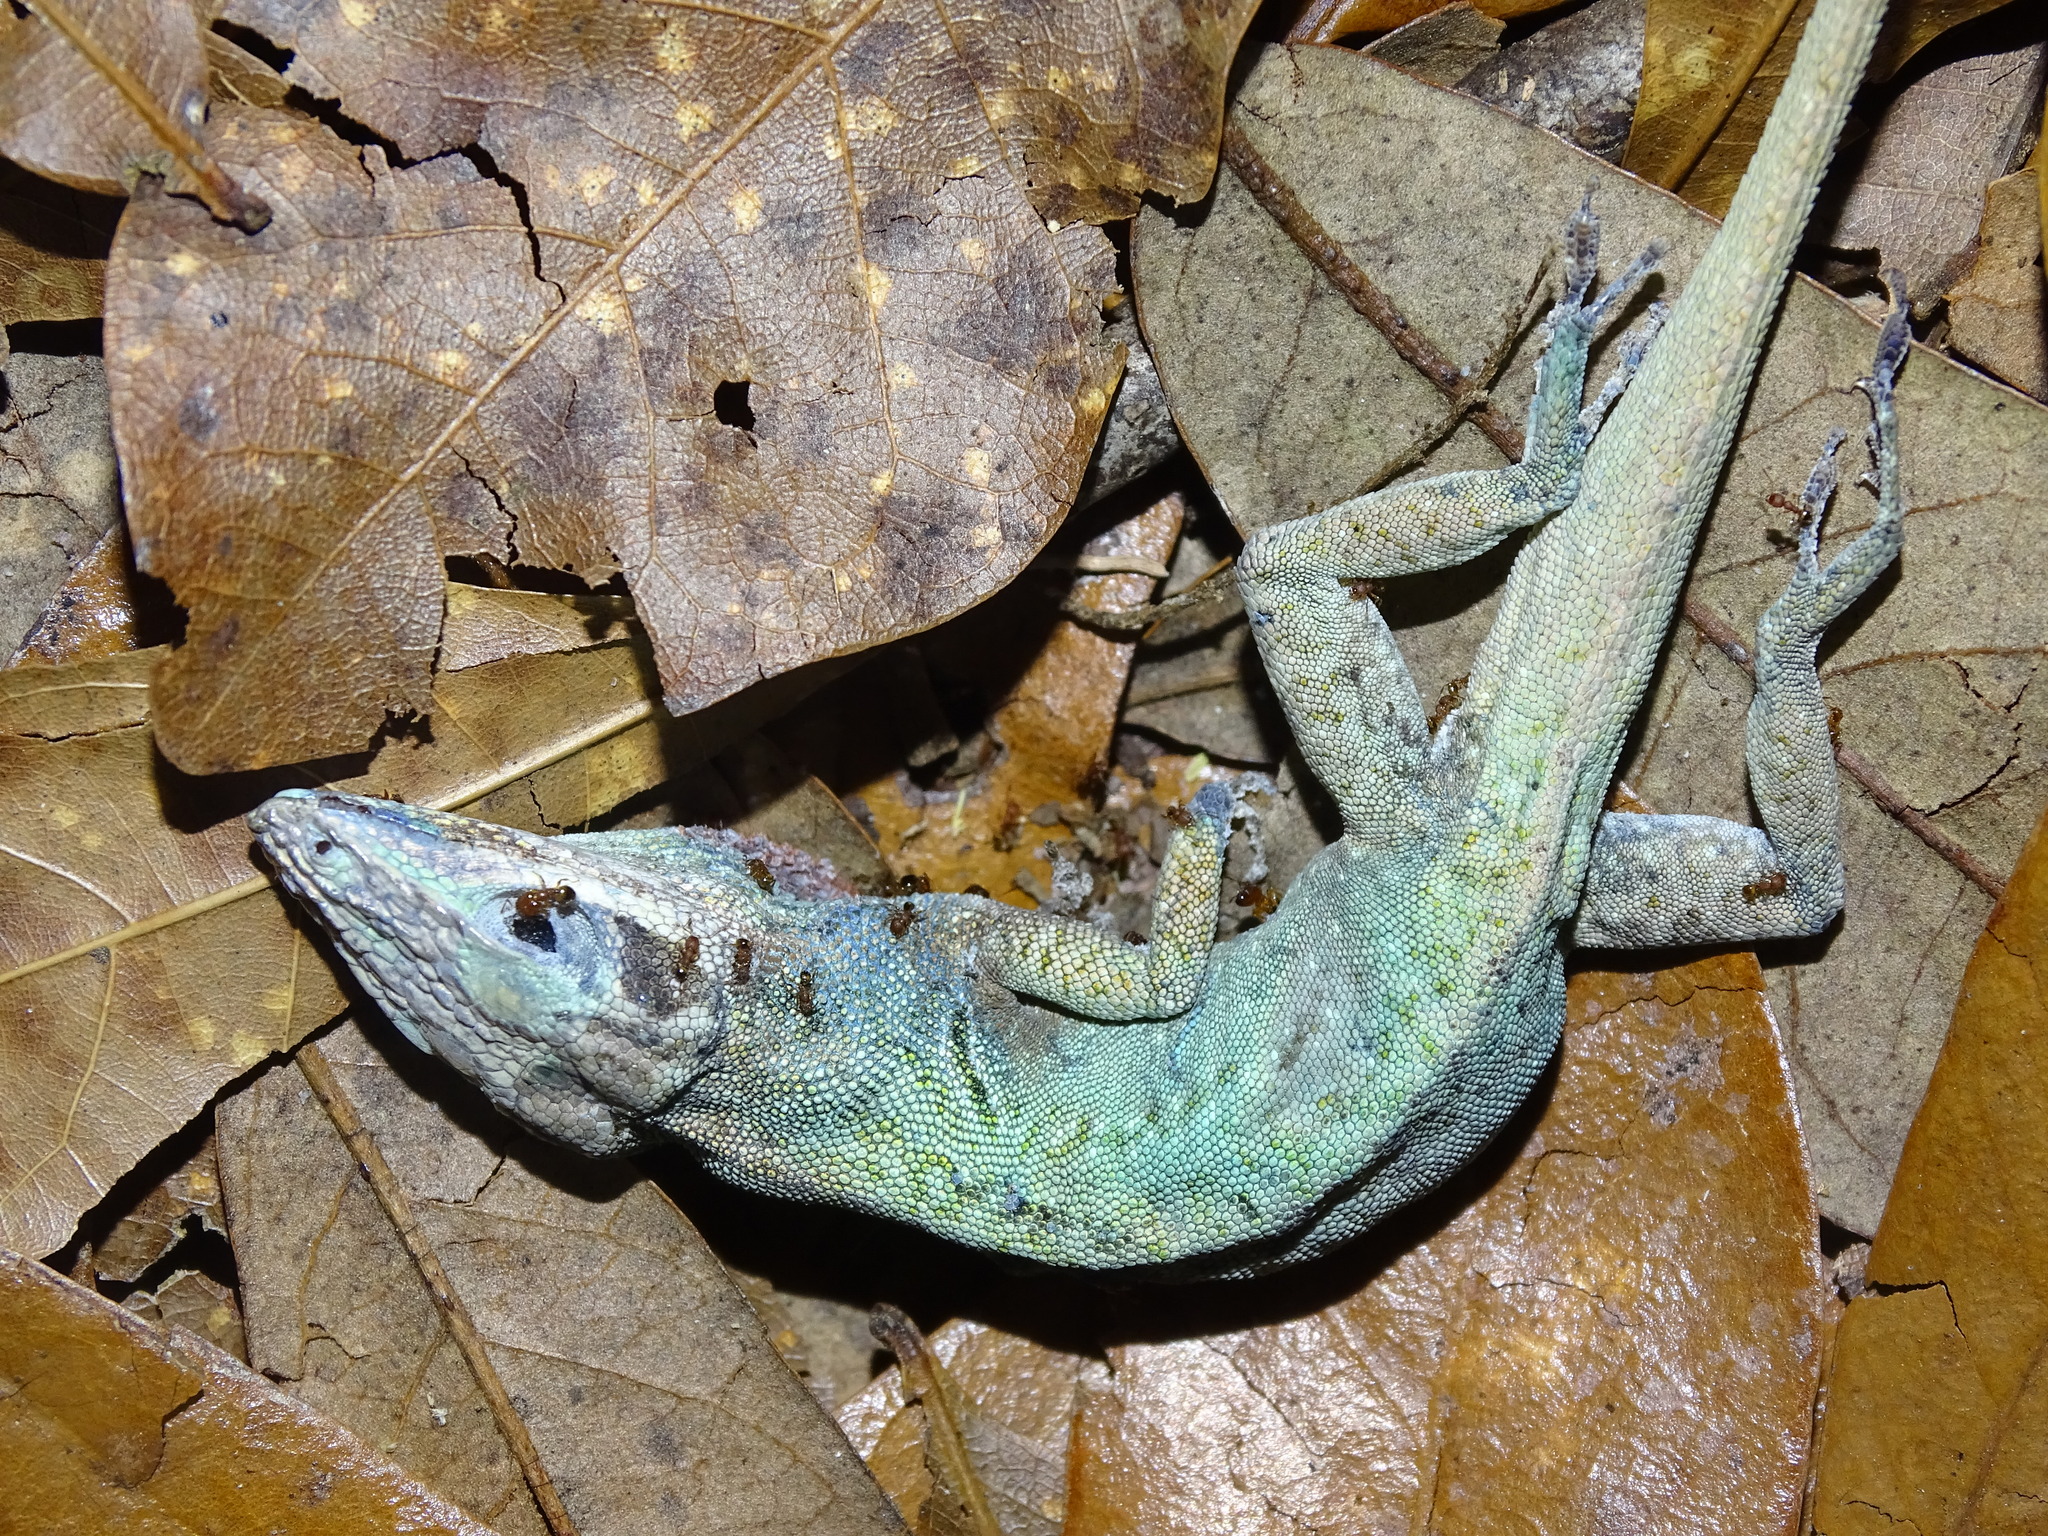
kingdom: Animalia
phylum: Chordata
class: Squamata
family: Dactyloidae
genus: Anolis
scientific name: Anolis carolinensis
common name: Green anole
